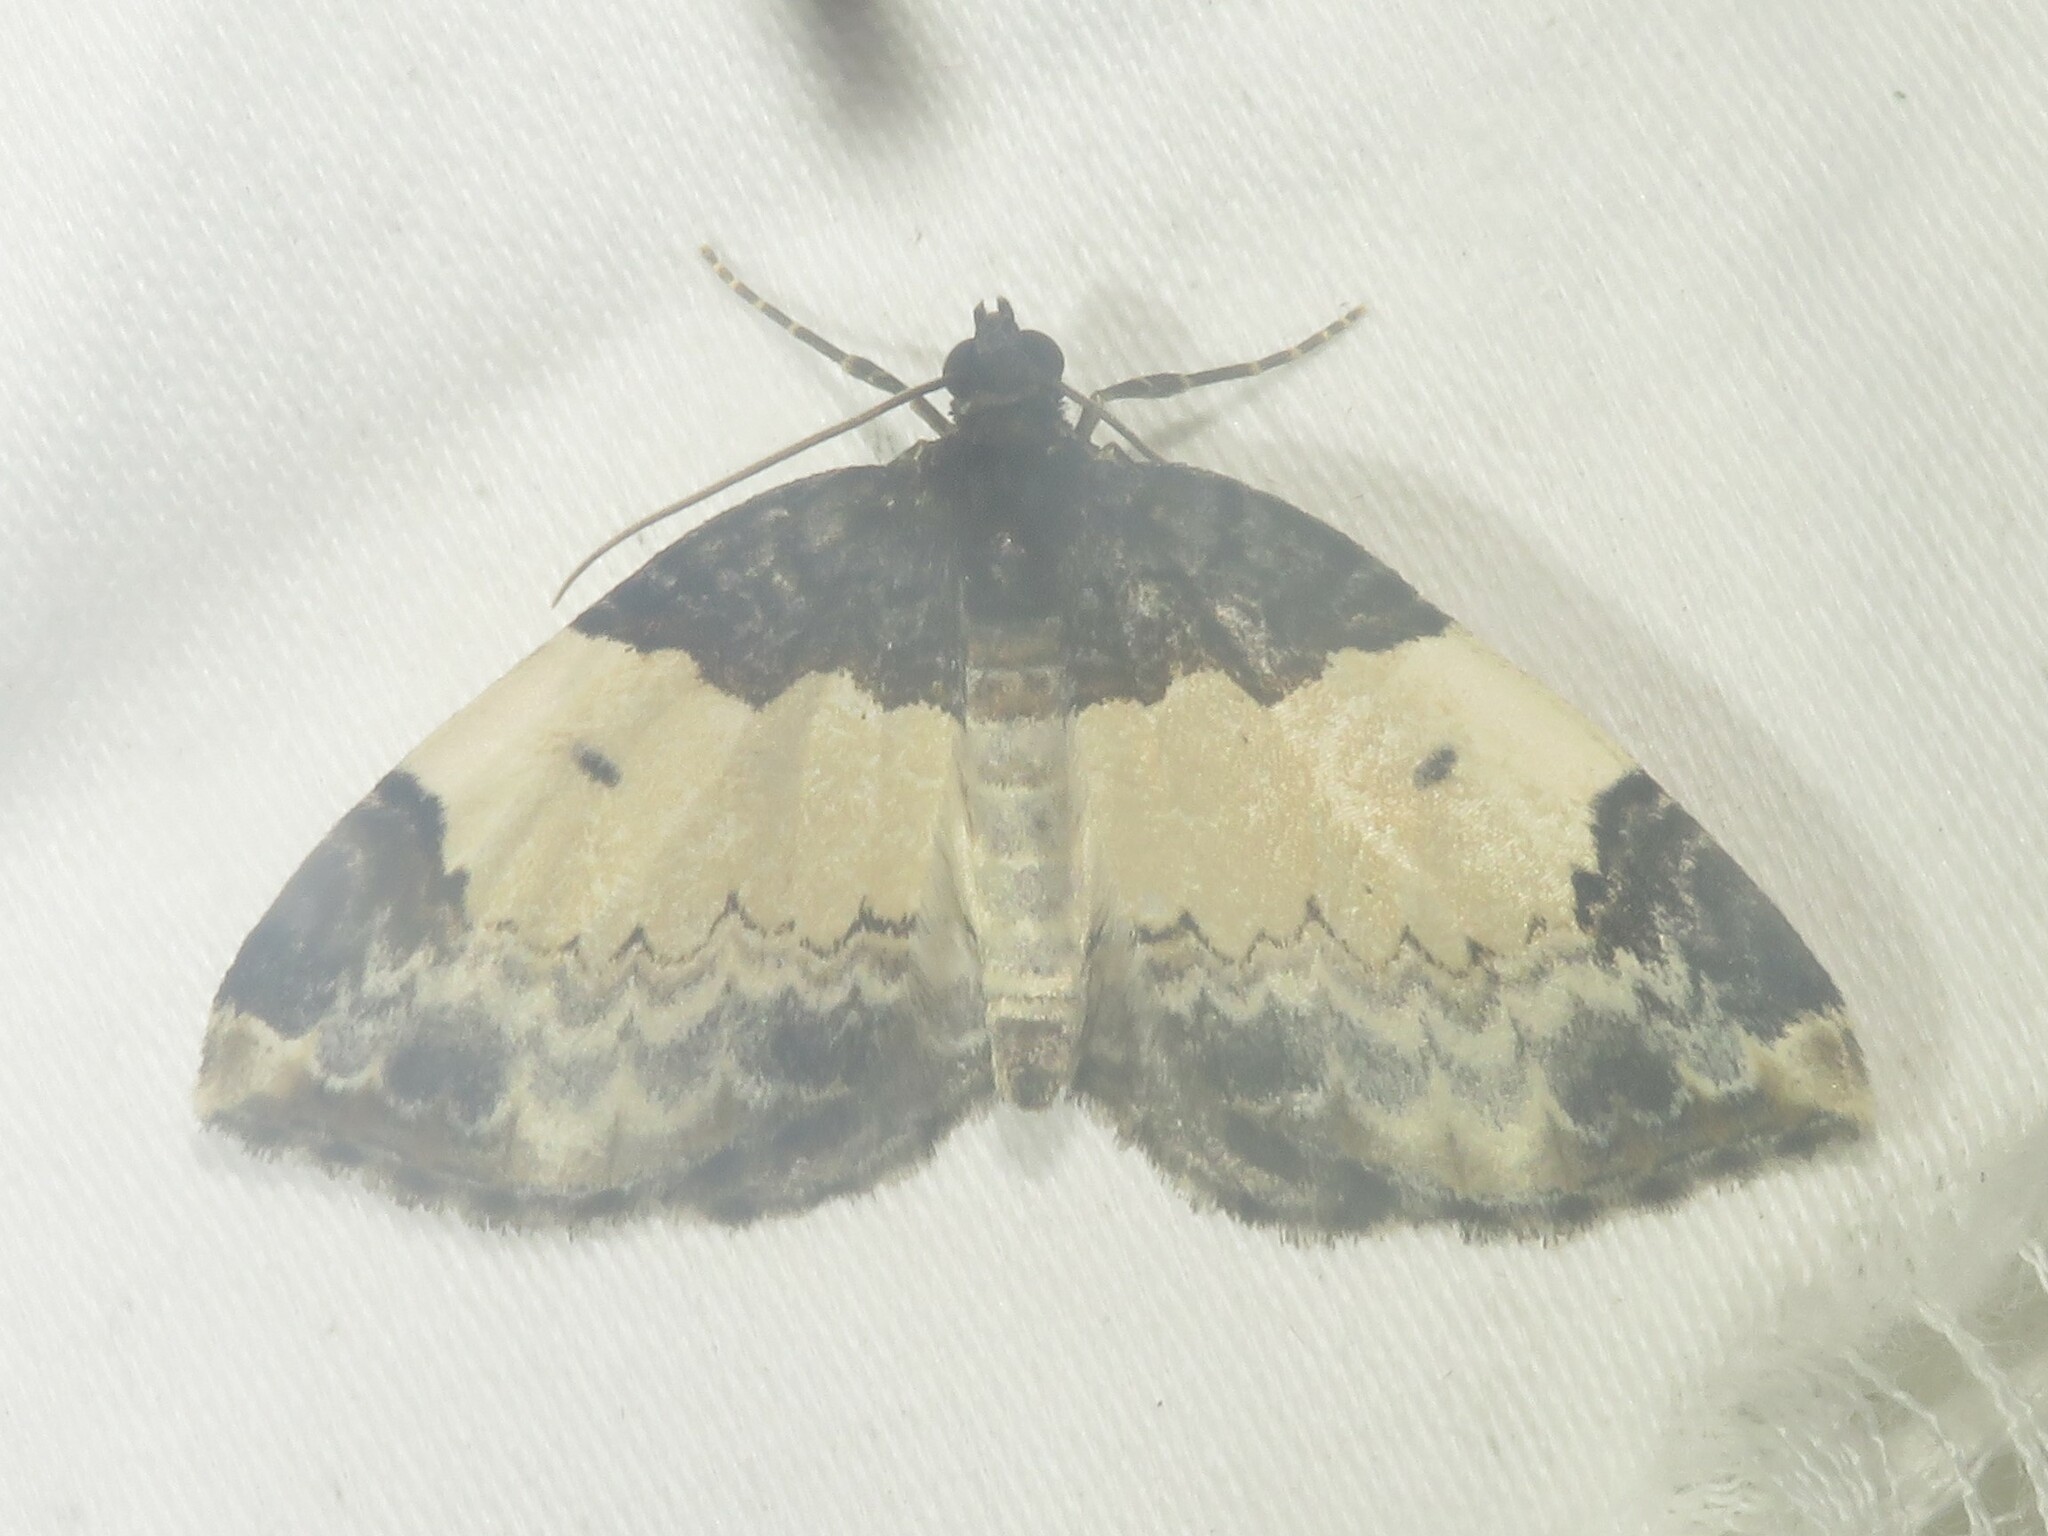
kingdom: Animalia
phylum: Arthropoda
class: Insecta
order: Lepidoptera
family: Geometridae
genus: Mesoleuca
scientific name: Mesoleuca ruficillata
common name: White-ribboned carpet moth
